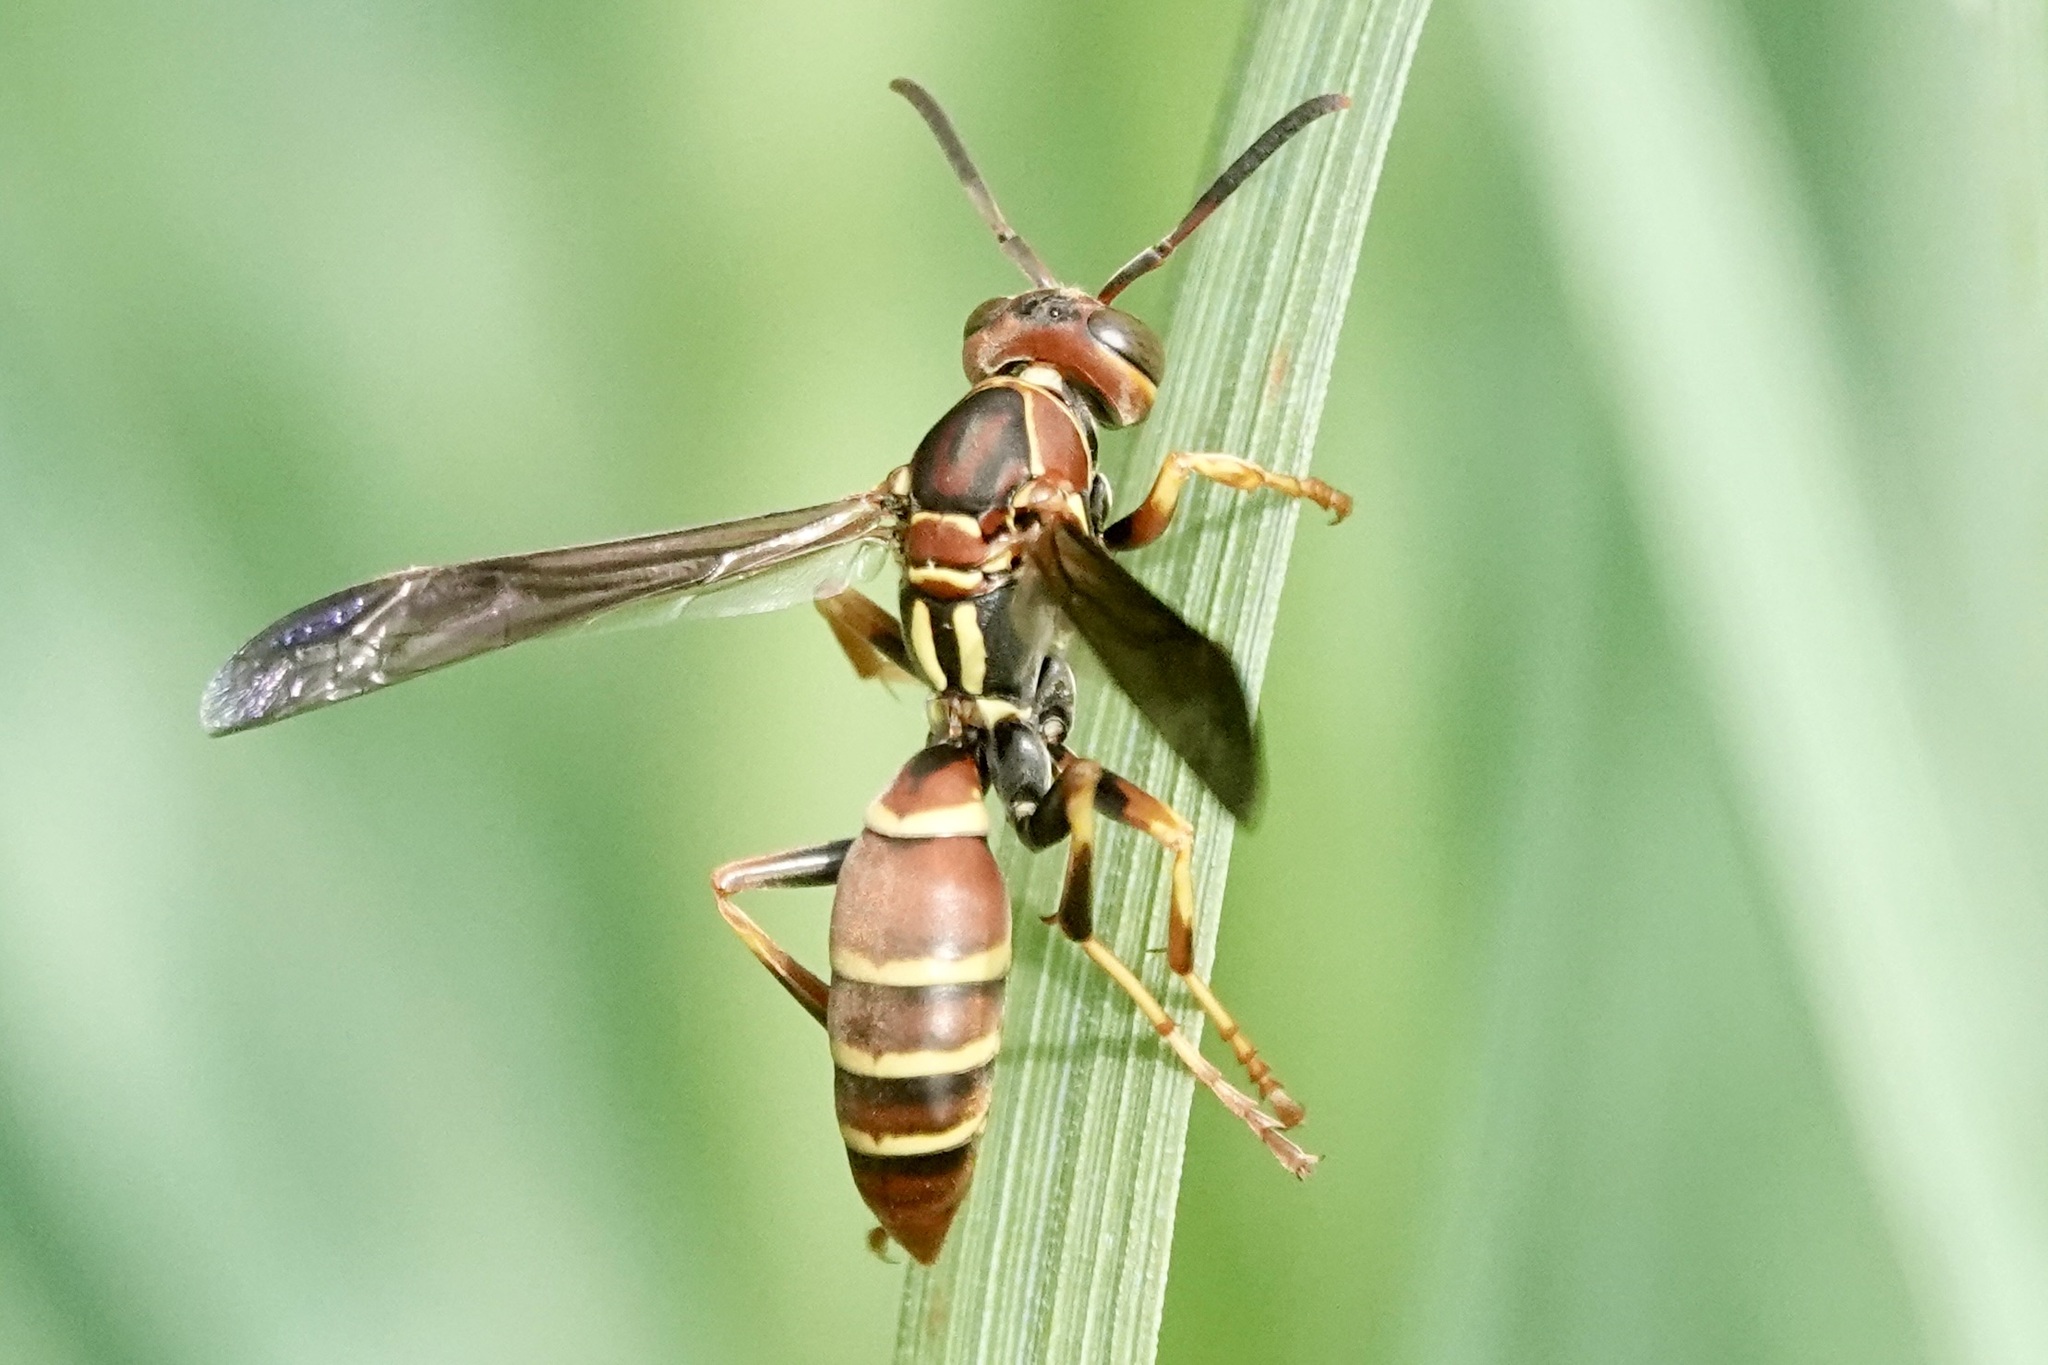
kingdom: Animalia
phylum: Arthropoda
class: Insecta
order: Hymenoptera
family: Eumenidae
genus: Polistes
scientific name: Polistes dorsalis
